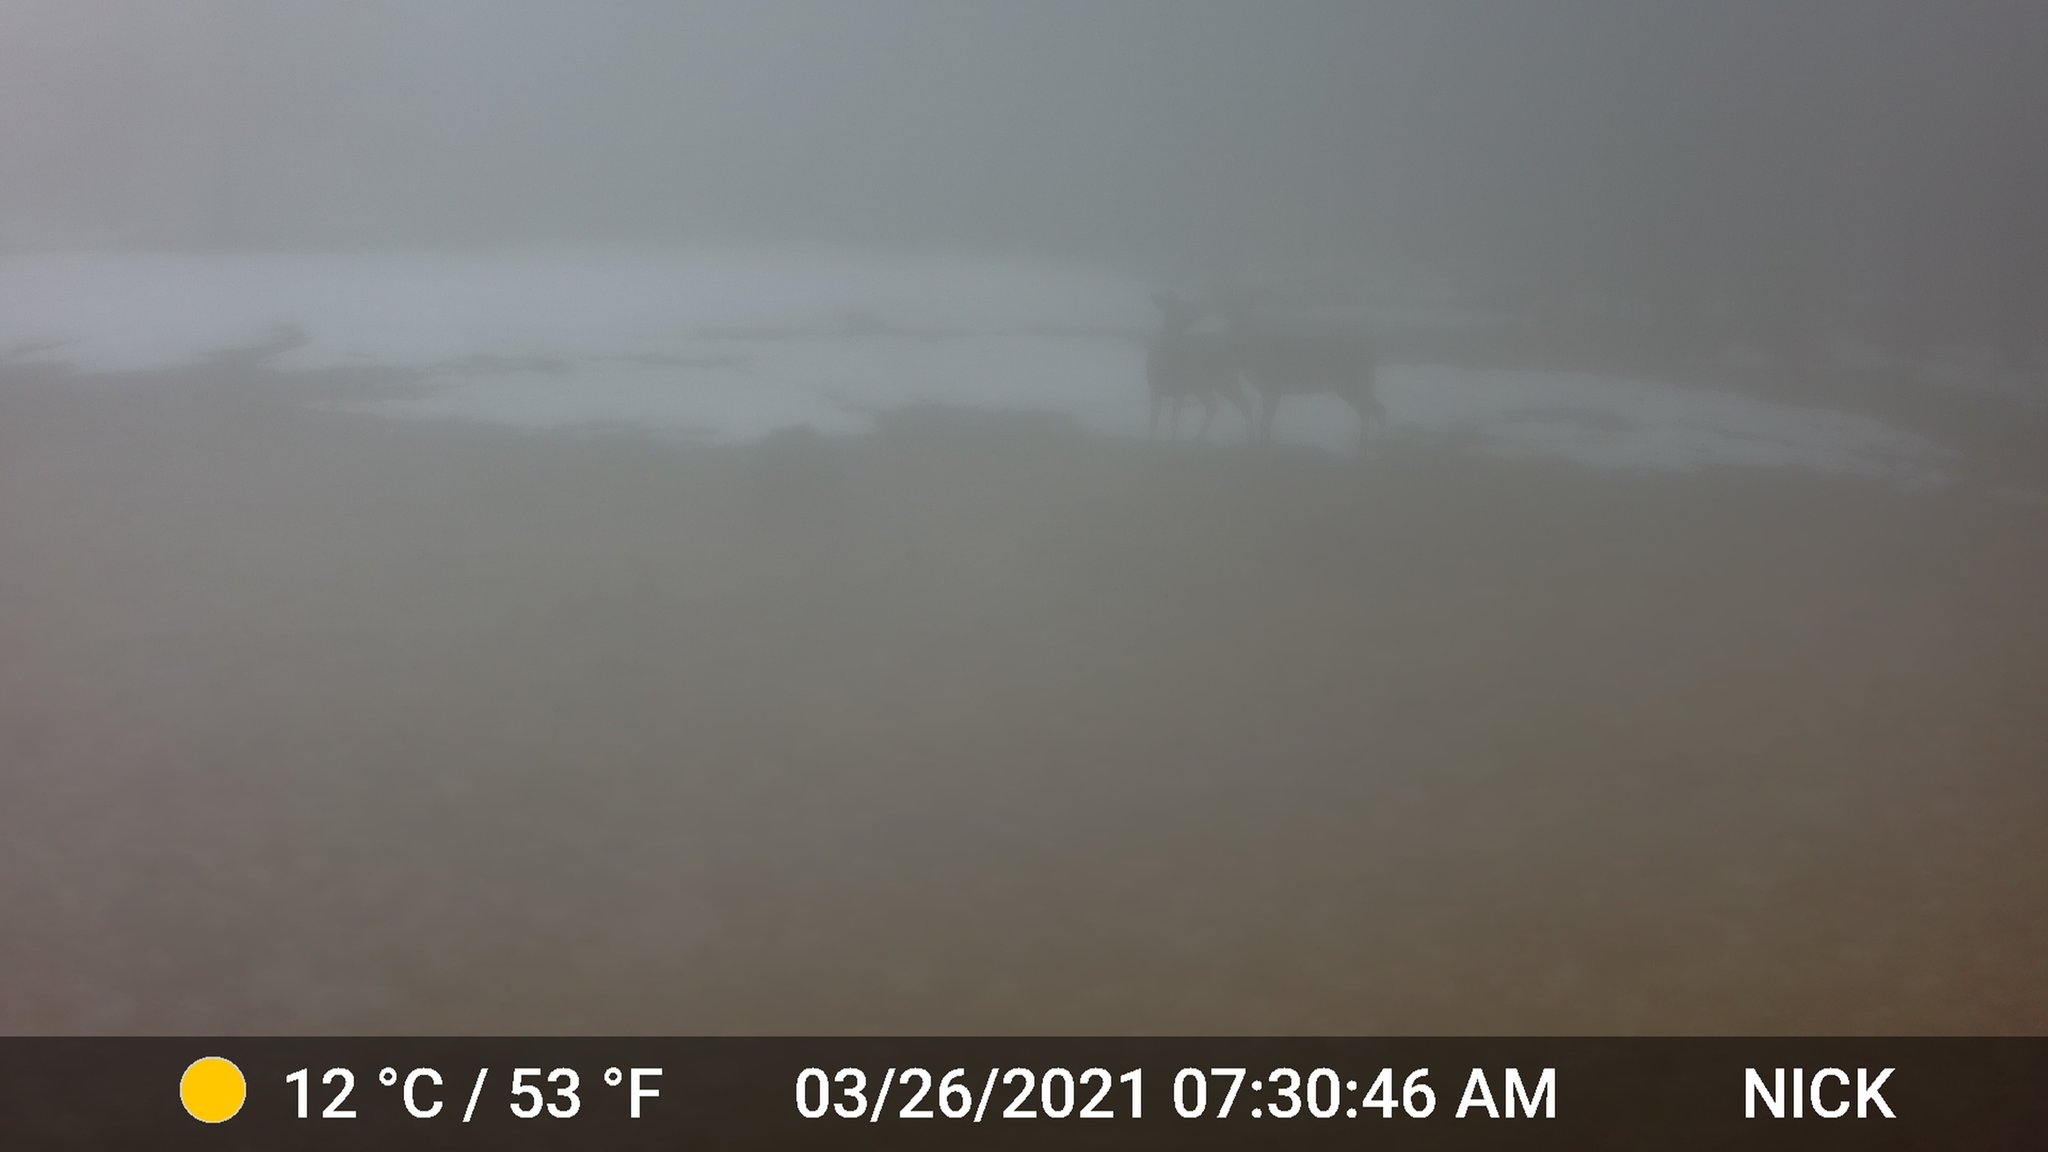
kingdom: Animalia
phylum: Chordata
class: Mammalia
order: Artiodactyla
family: Cervidae
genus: Odocoileus
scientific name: Odocoileus virginianus
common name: White-tailed deer
